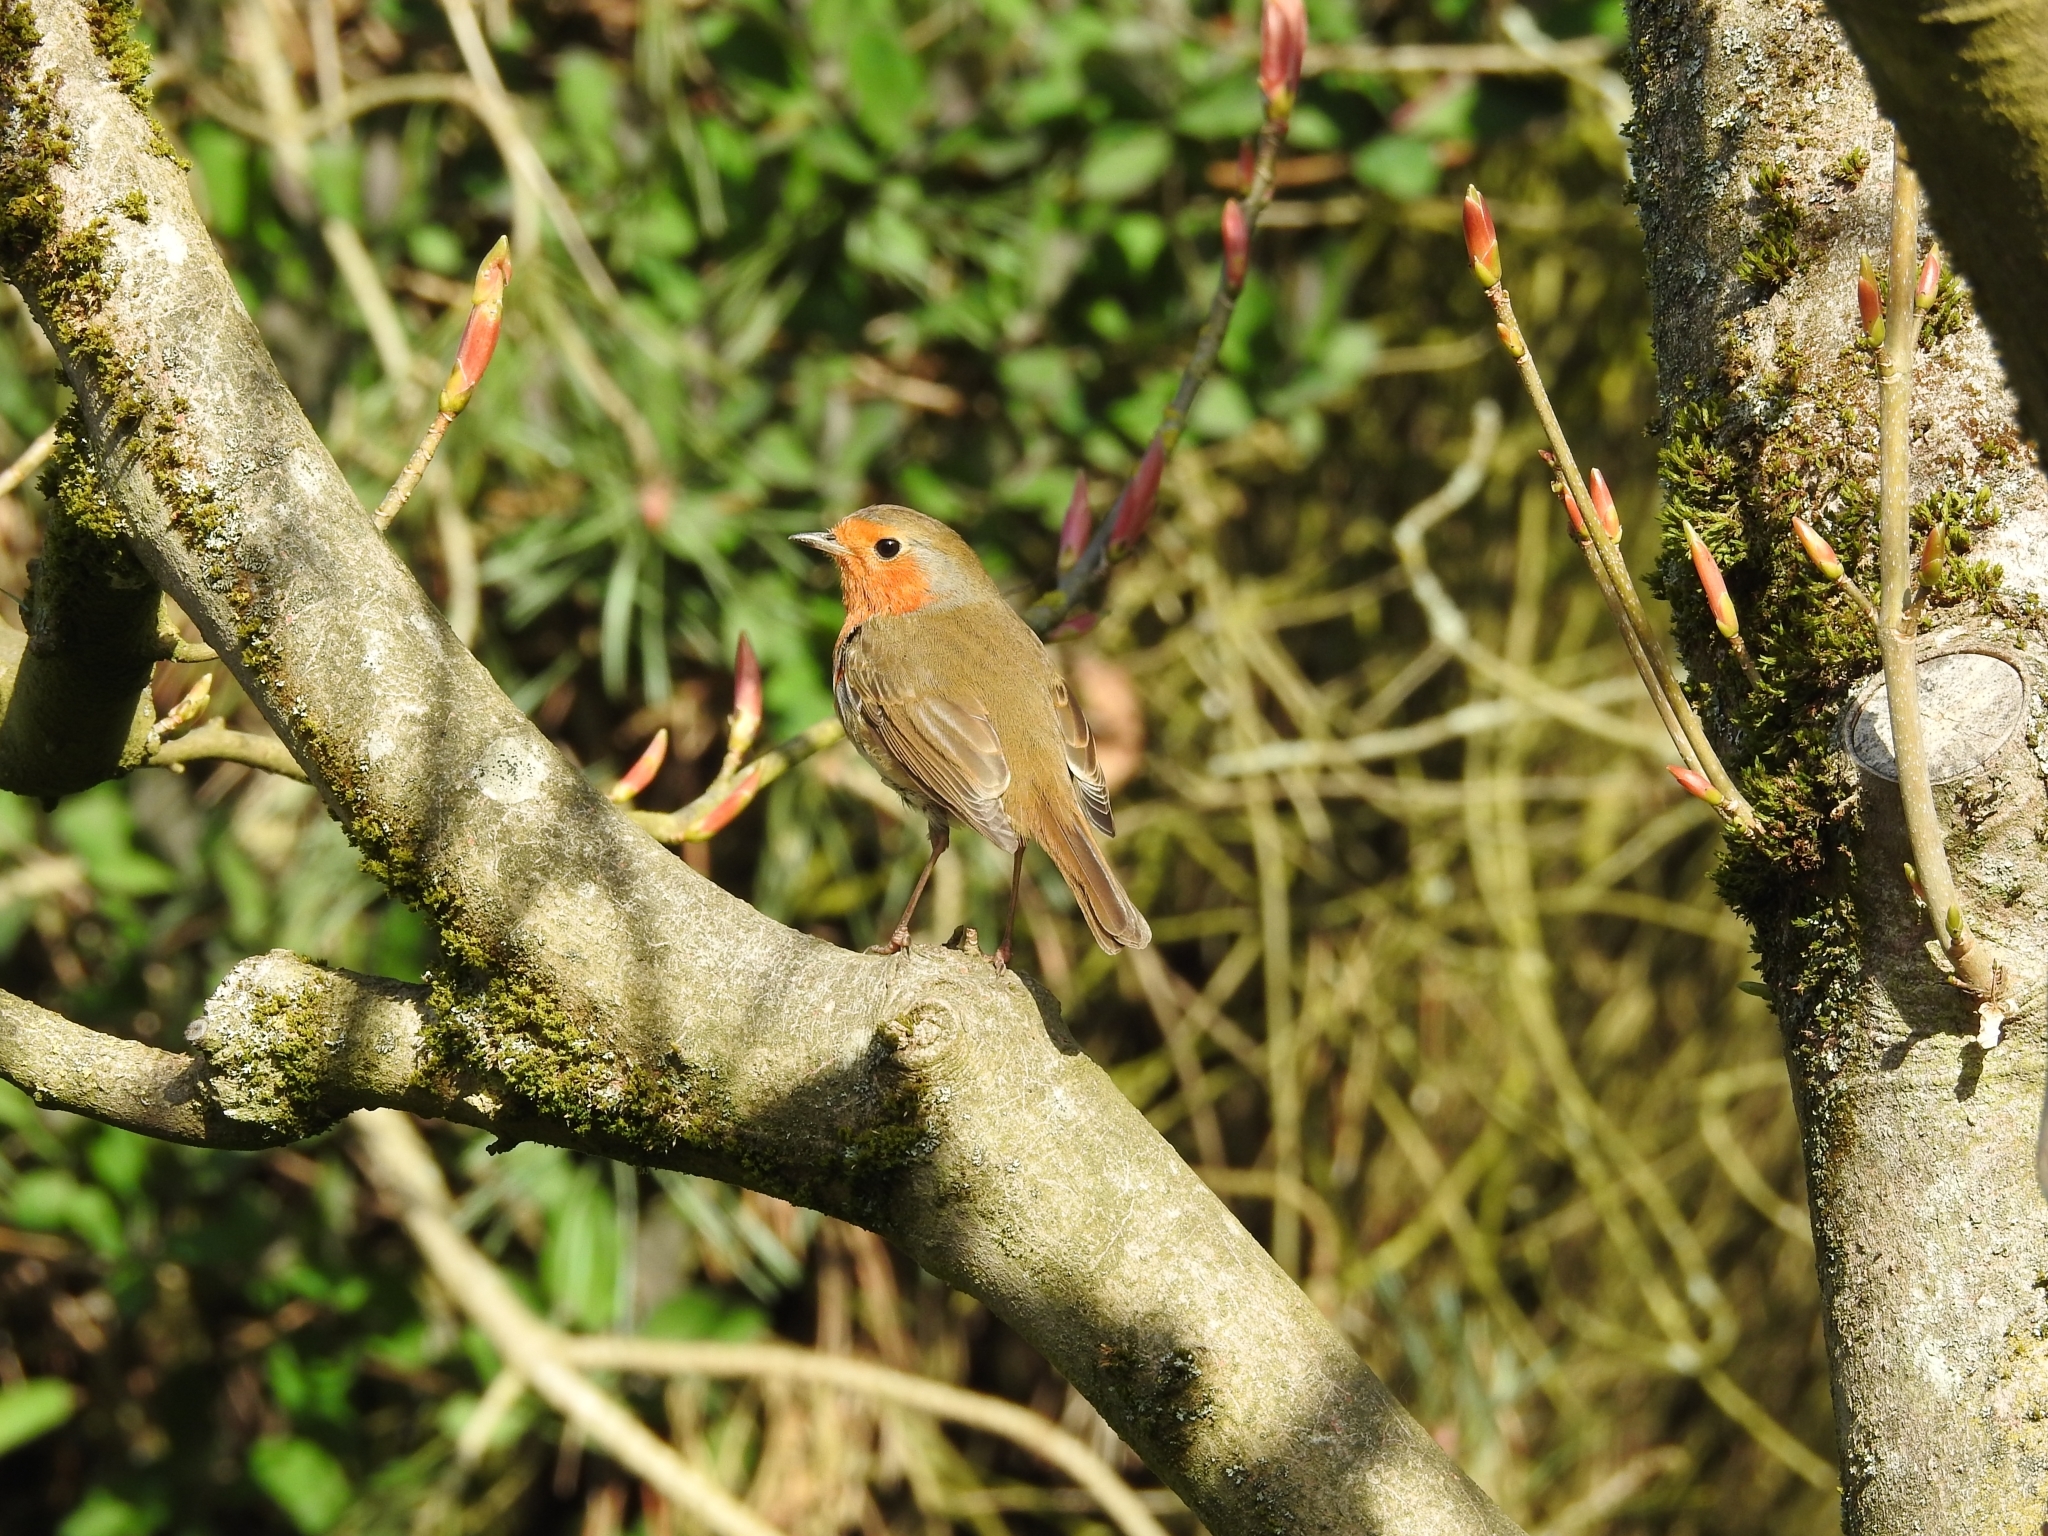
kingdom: Animalia
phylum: Chordata
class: Aves
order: Passeriformes
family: Muscicapidae
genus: Erithacus
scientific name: Erithacus rubecula
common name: European robin
